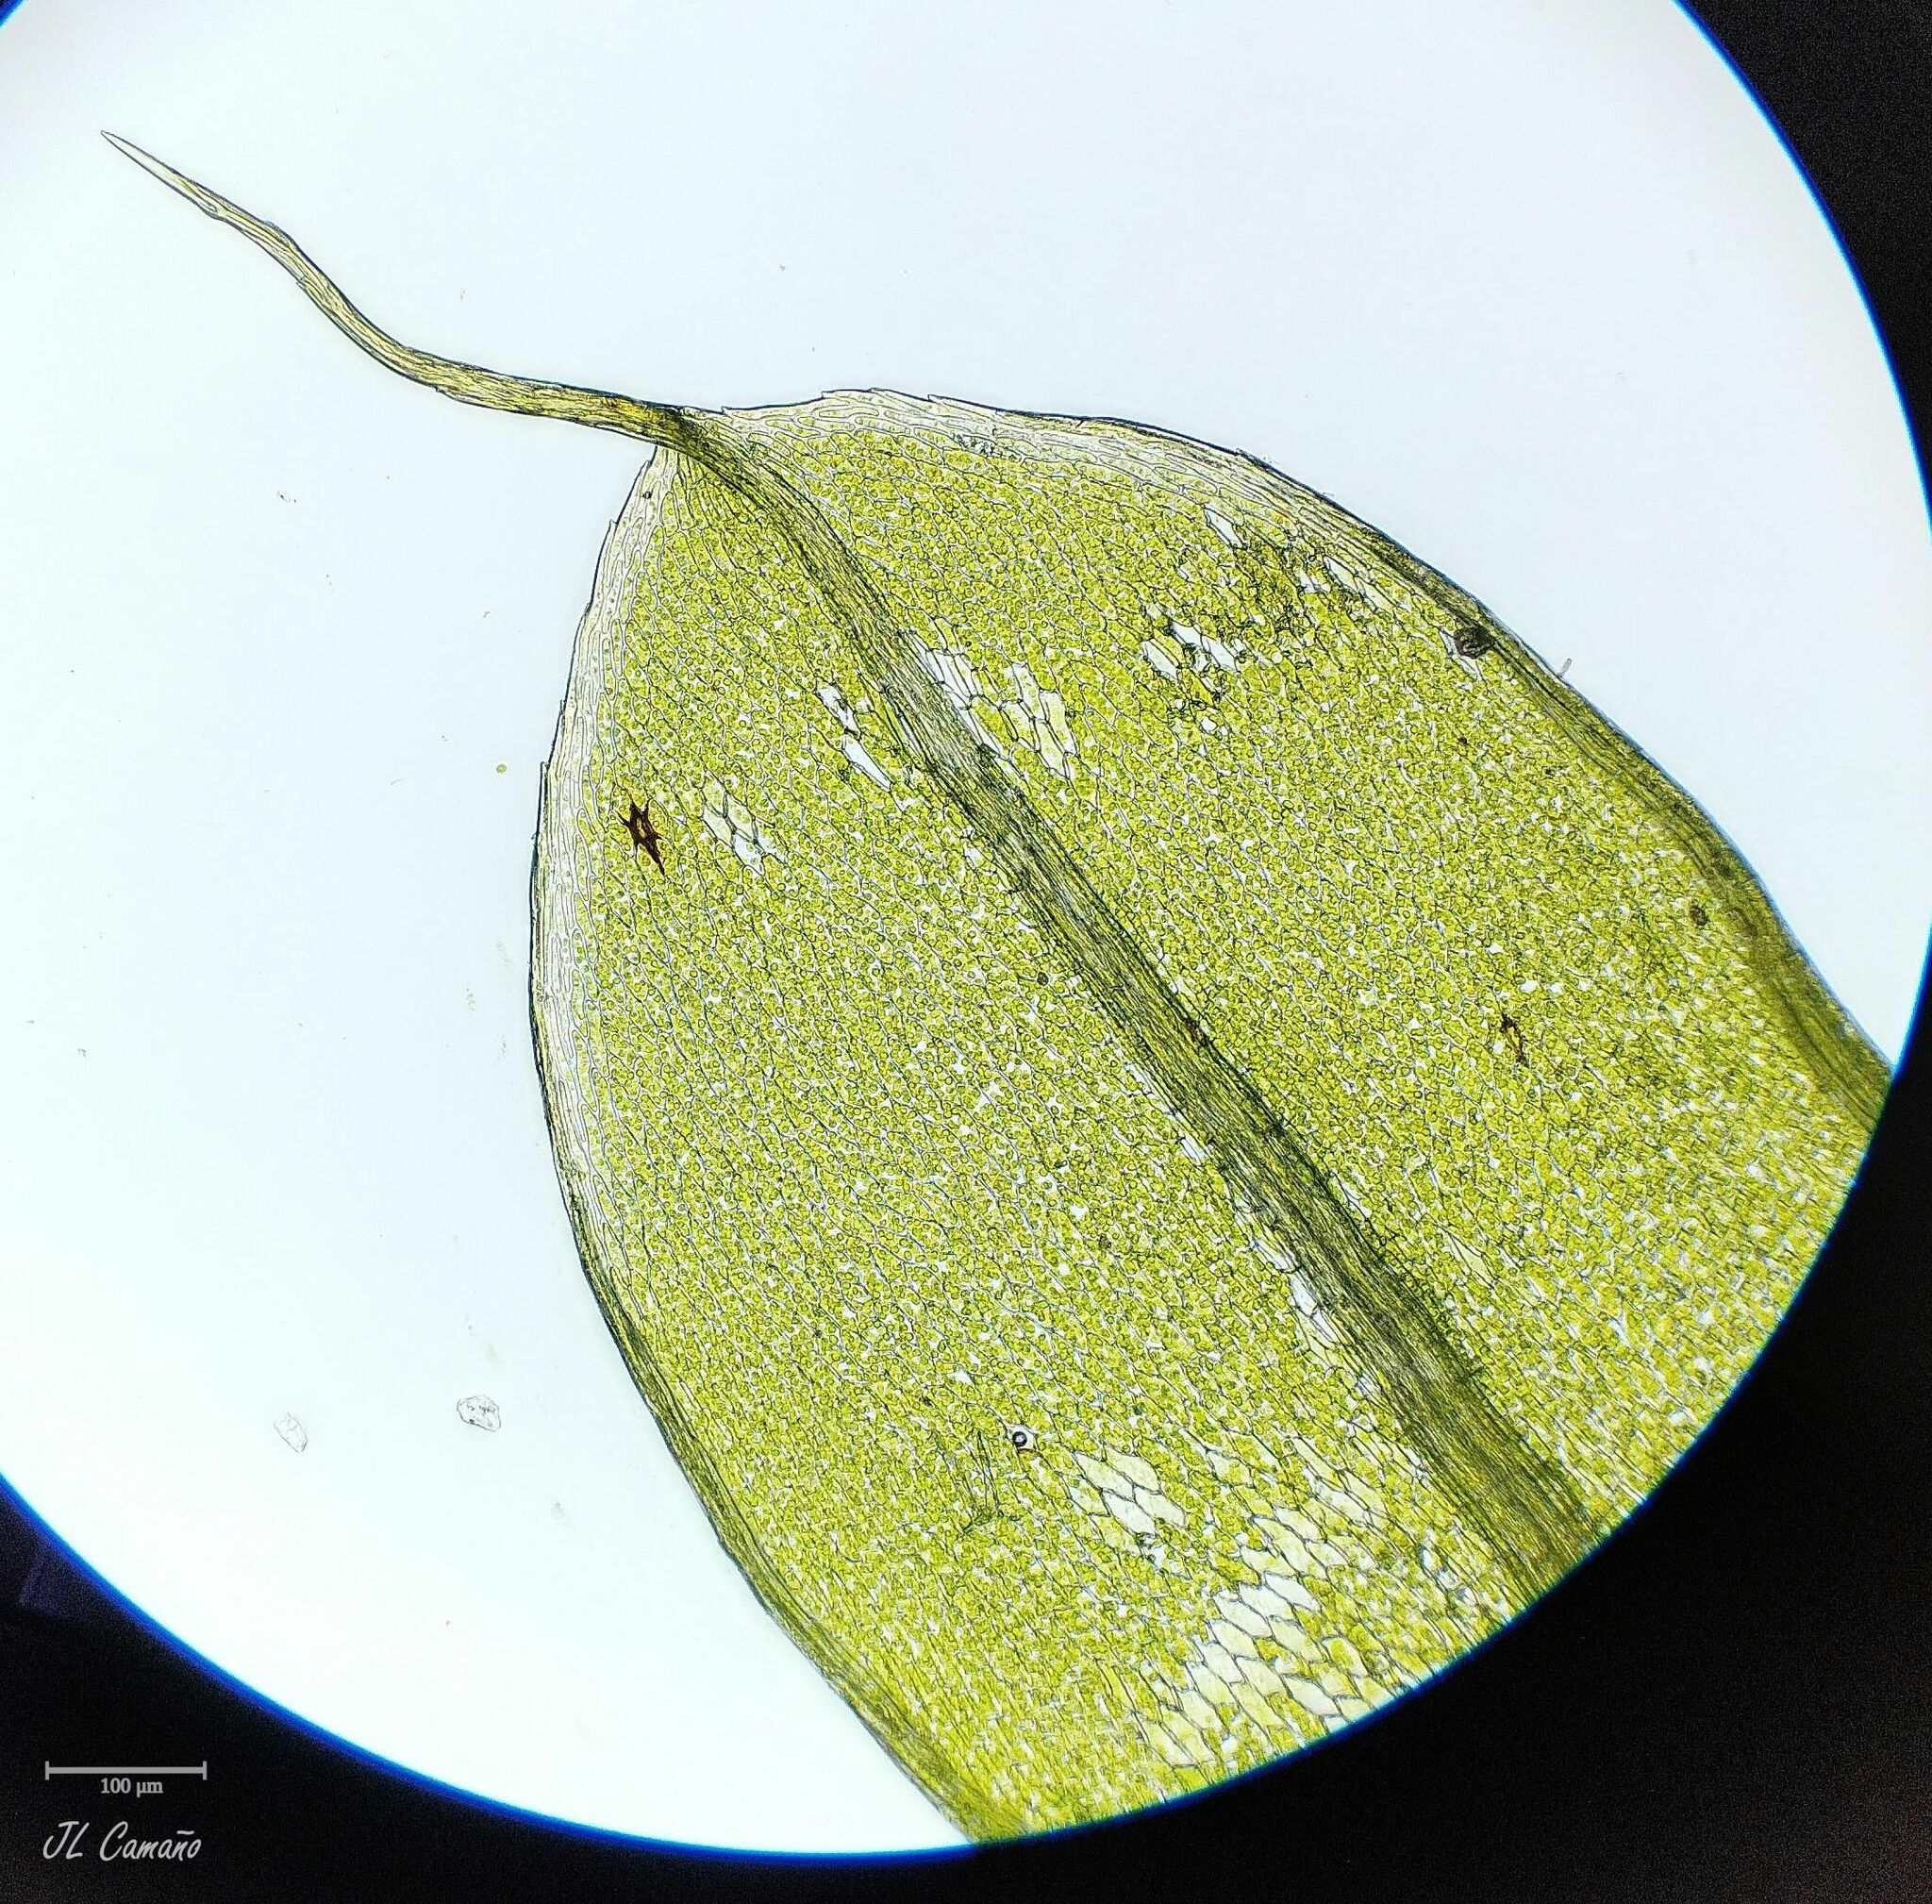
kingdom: Plantae
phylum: Bryophyta
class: Bryopsida
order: Bryales
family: Bryaceae
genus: Rosulabryum
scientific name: Rosulabryum capillare
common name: Capillary thread-moss
